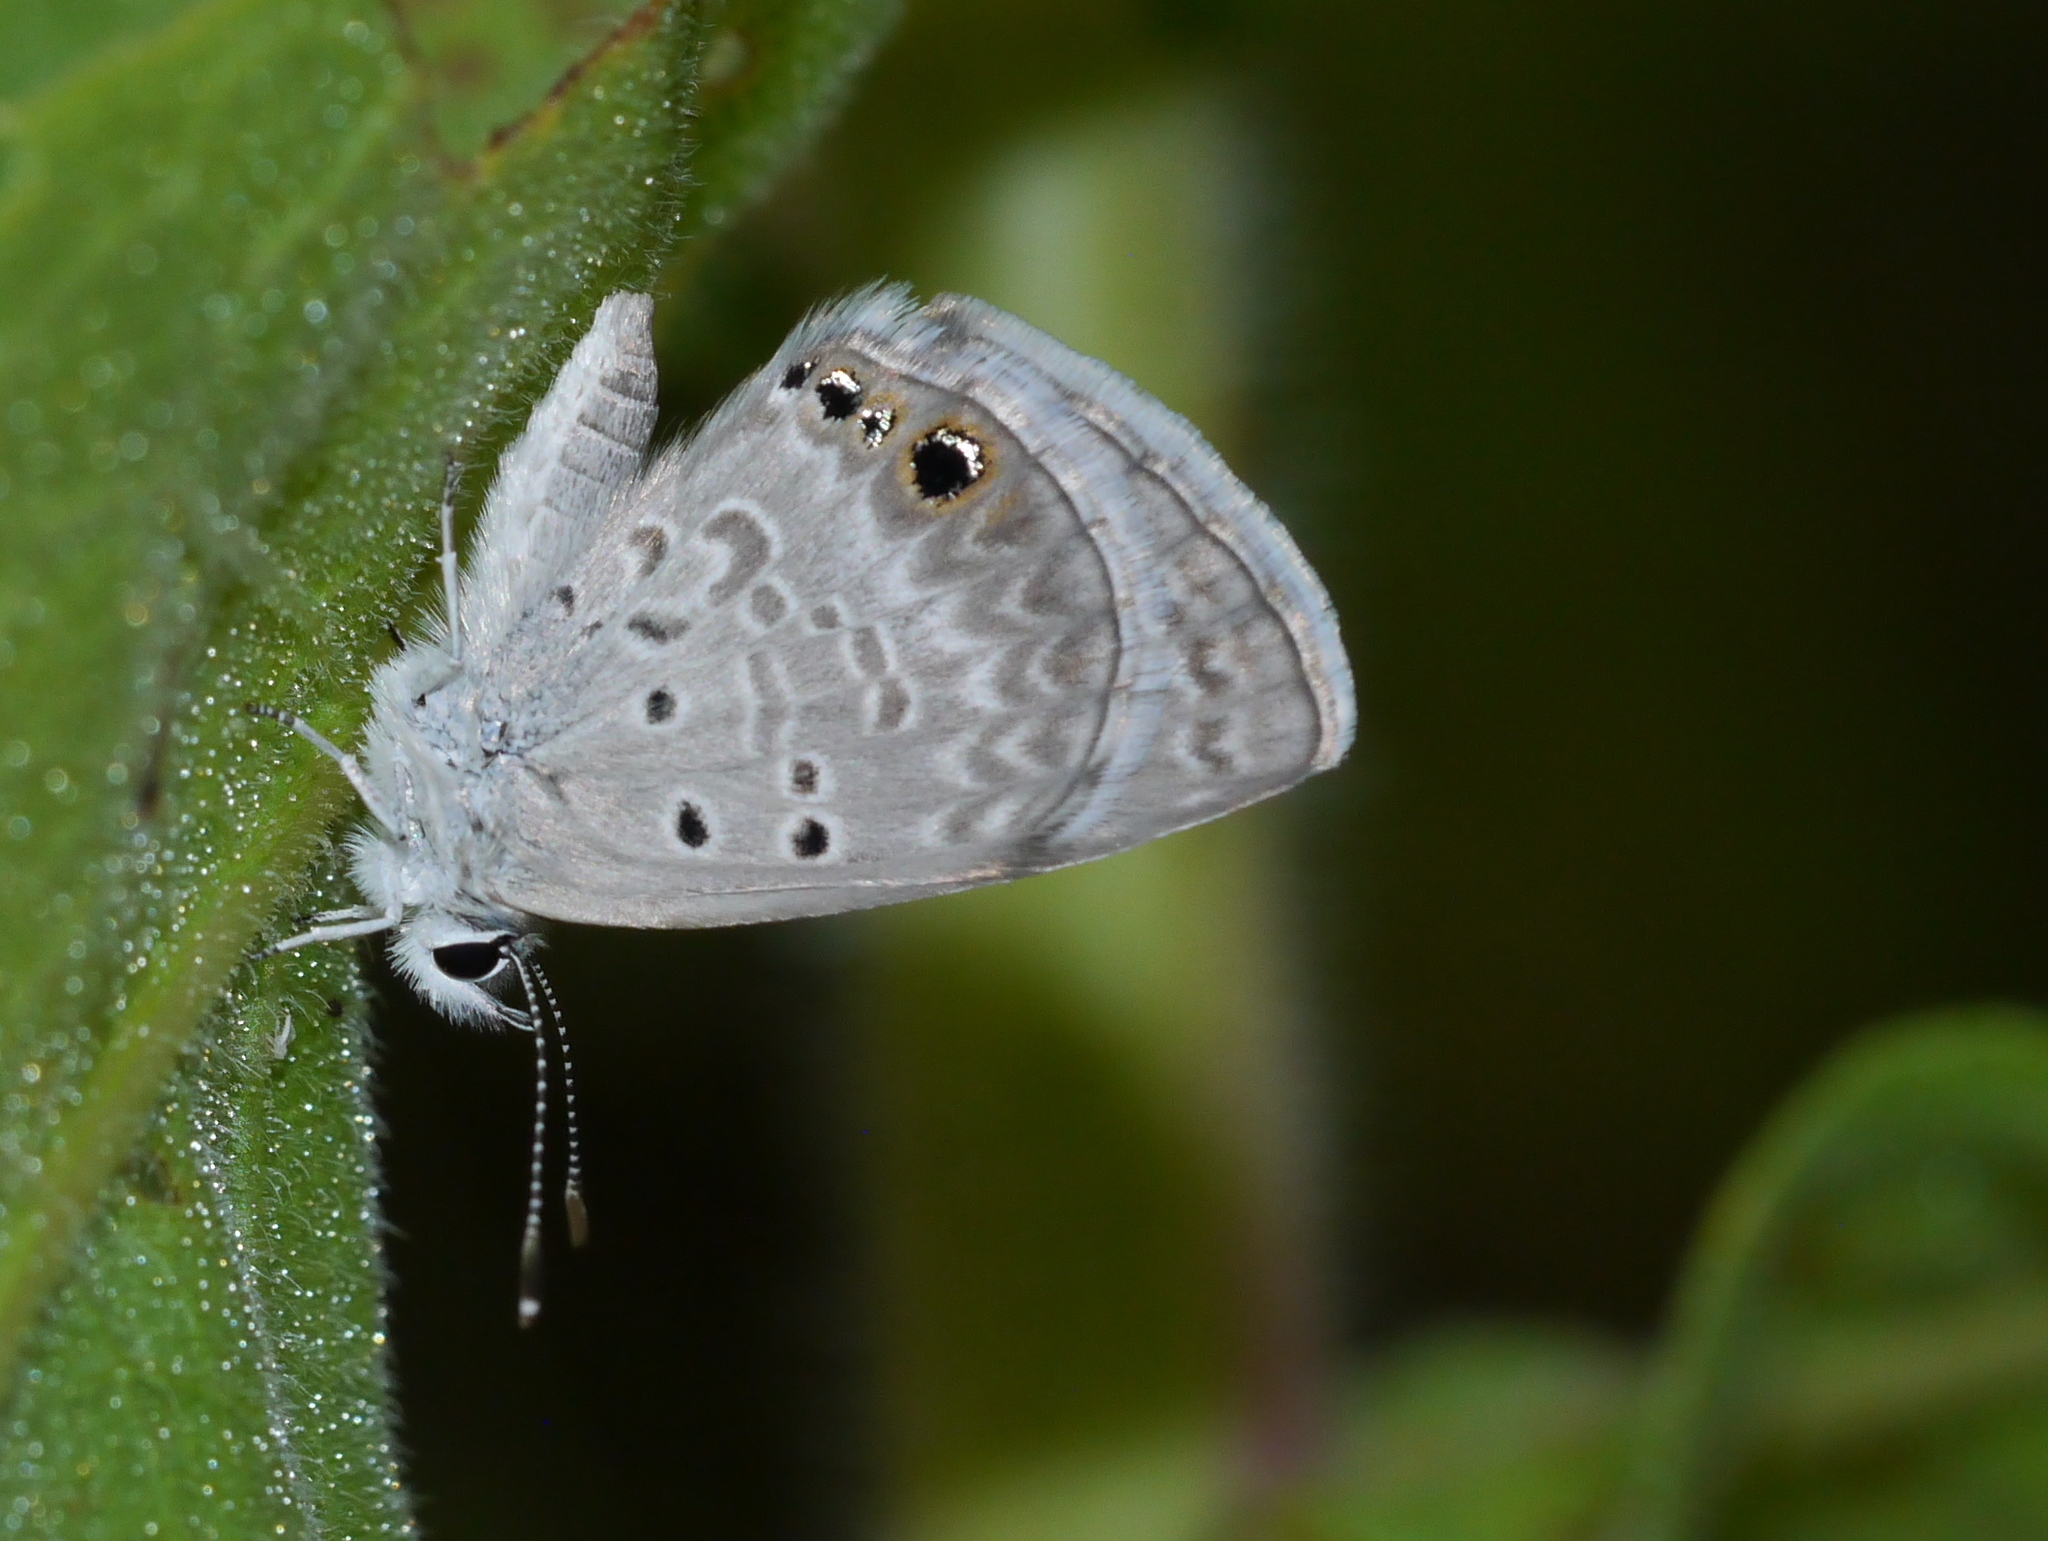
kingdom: Animalia
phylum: Arthropoda
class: Insecta
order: Lepidoptera
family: Lycaenidae
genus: Hemiargus
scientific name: Hemiargus ceraunus
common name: Ceraunus blue
